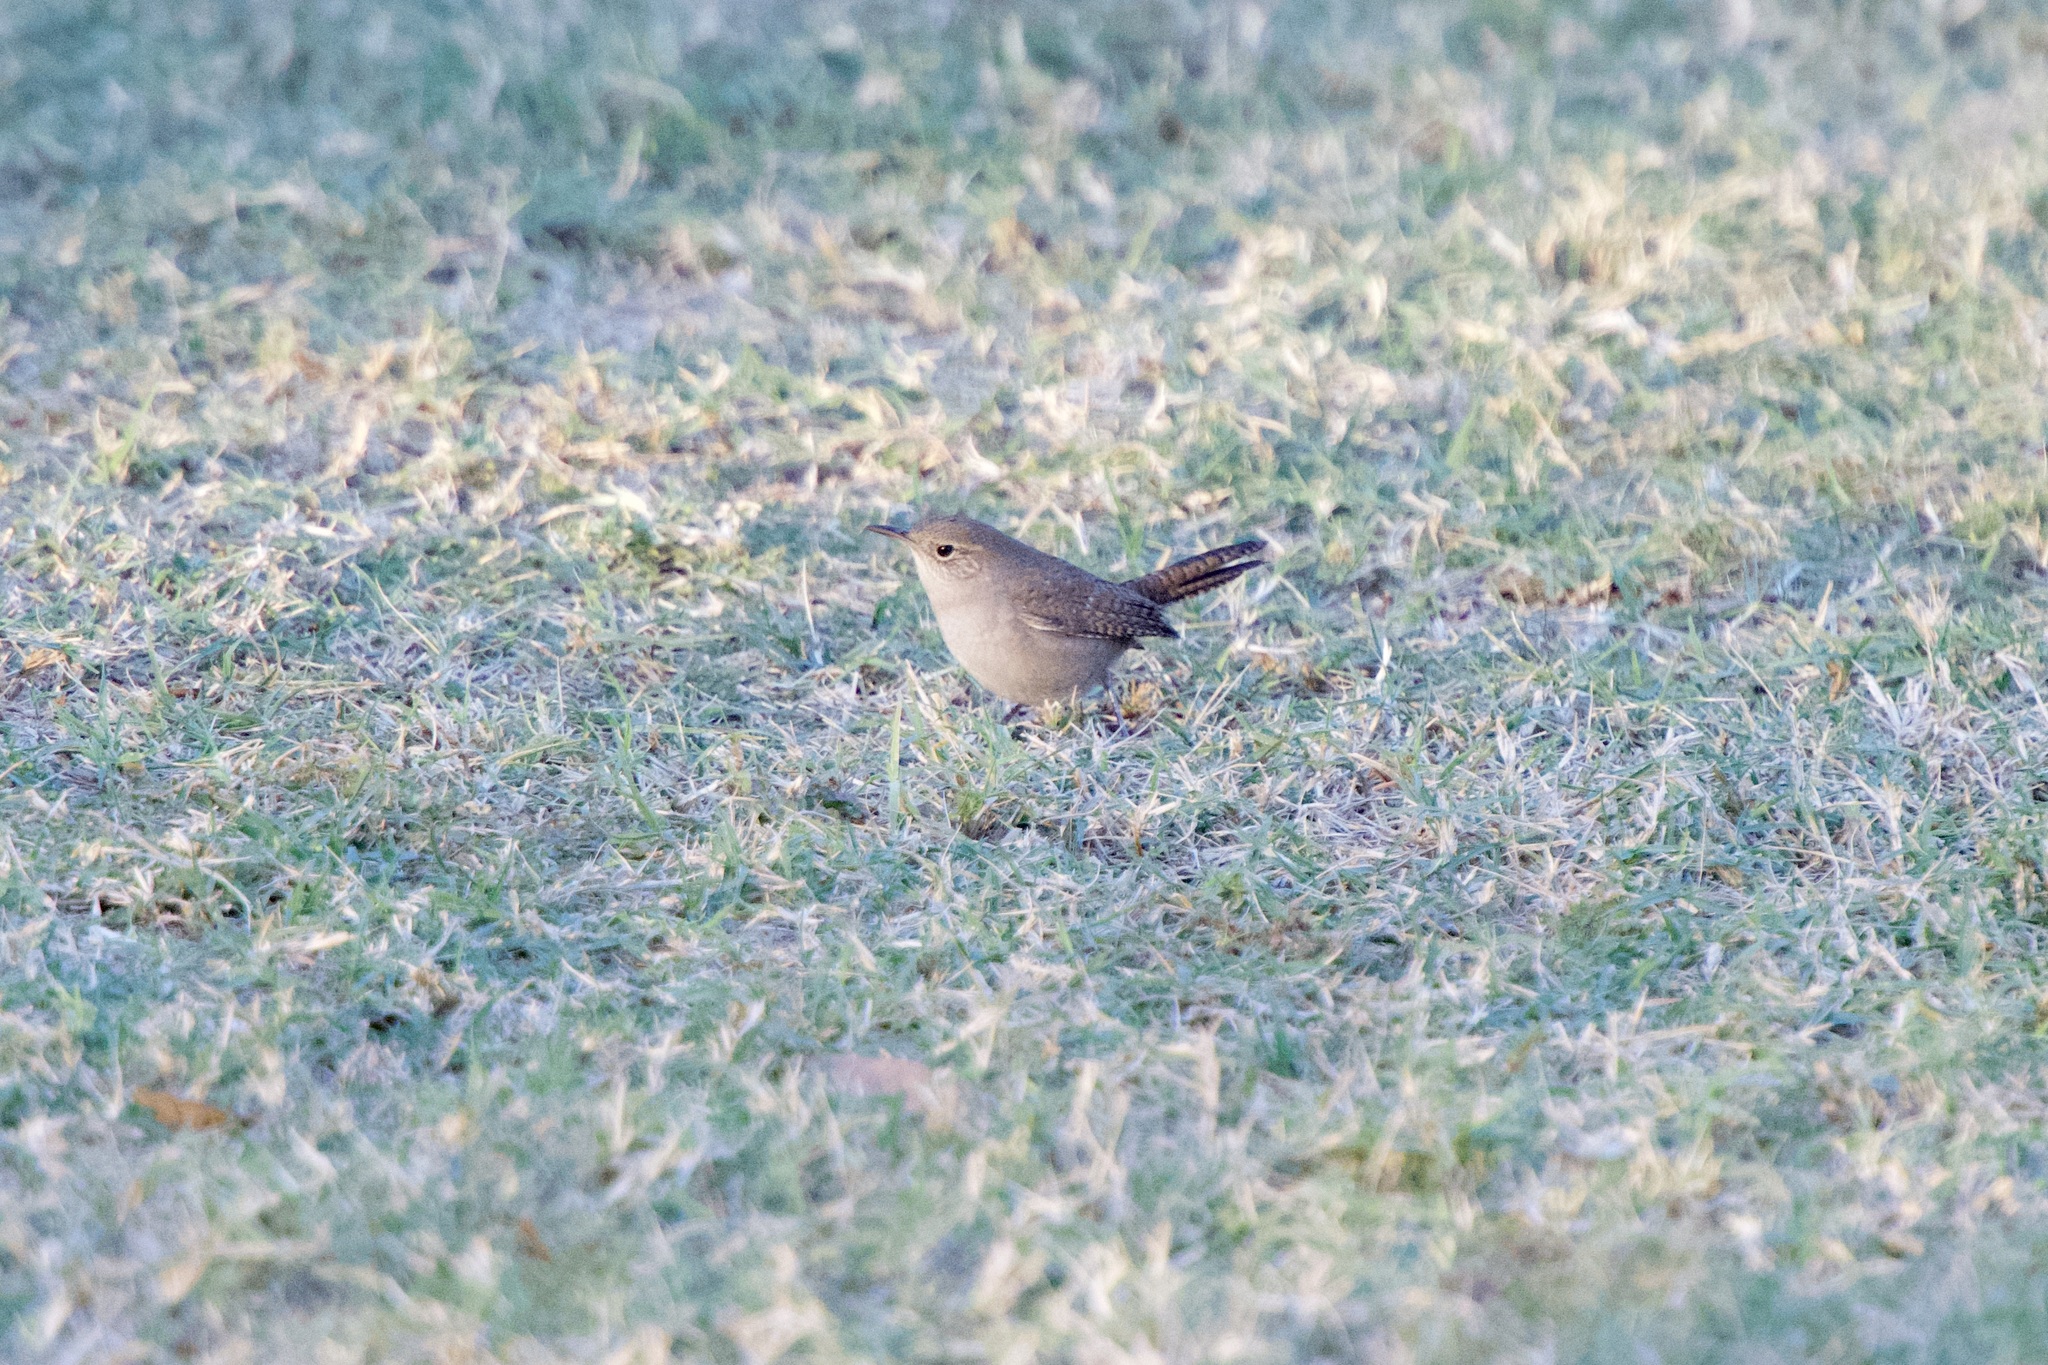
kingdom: Animalia
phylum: Chordata
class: Aves
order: Passeriformes
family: Troglodytidae
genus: Troglodytes
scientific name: Troglodytes aedon
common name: House wren
